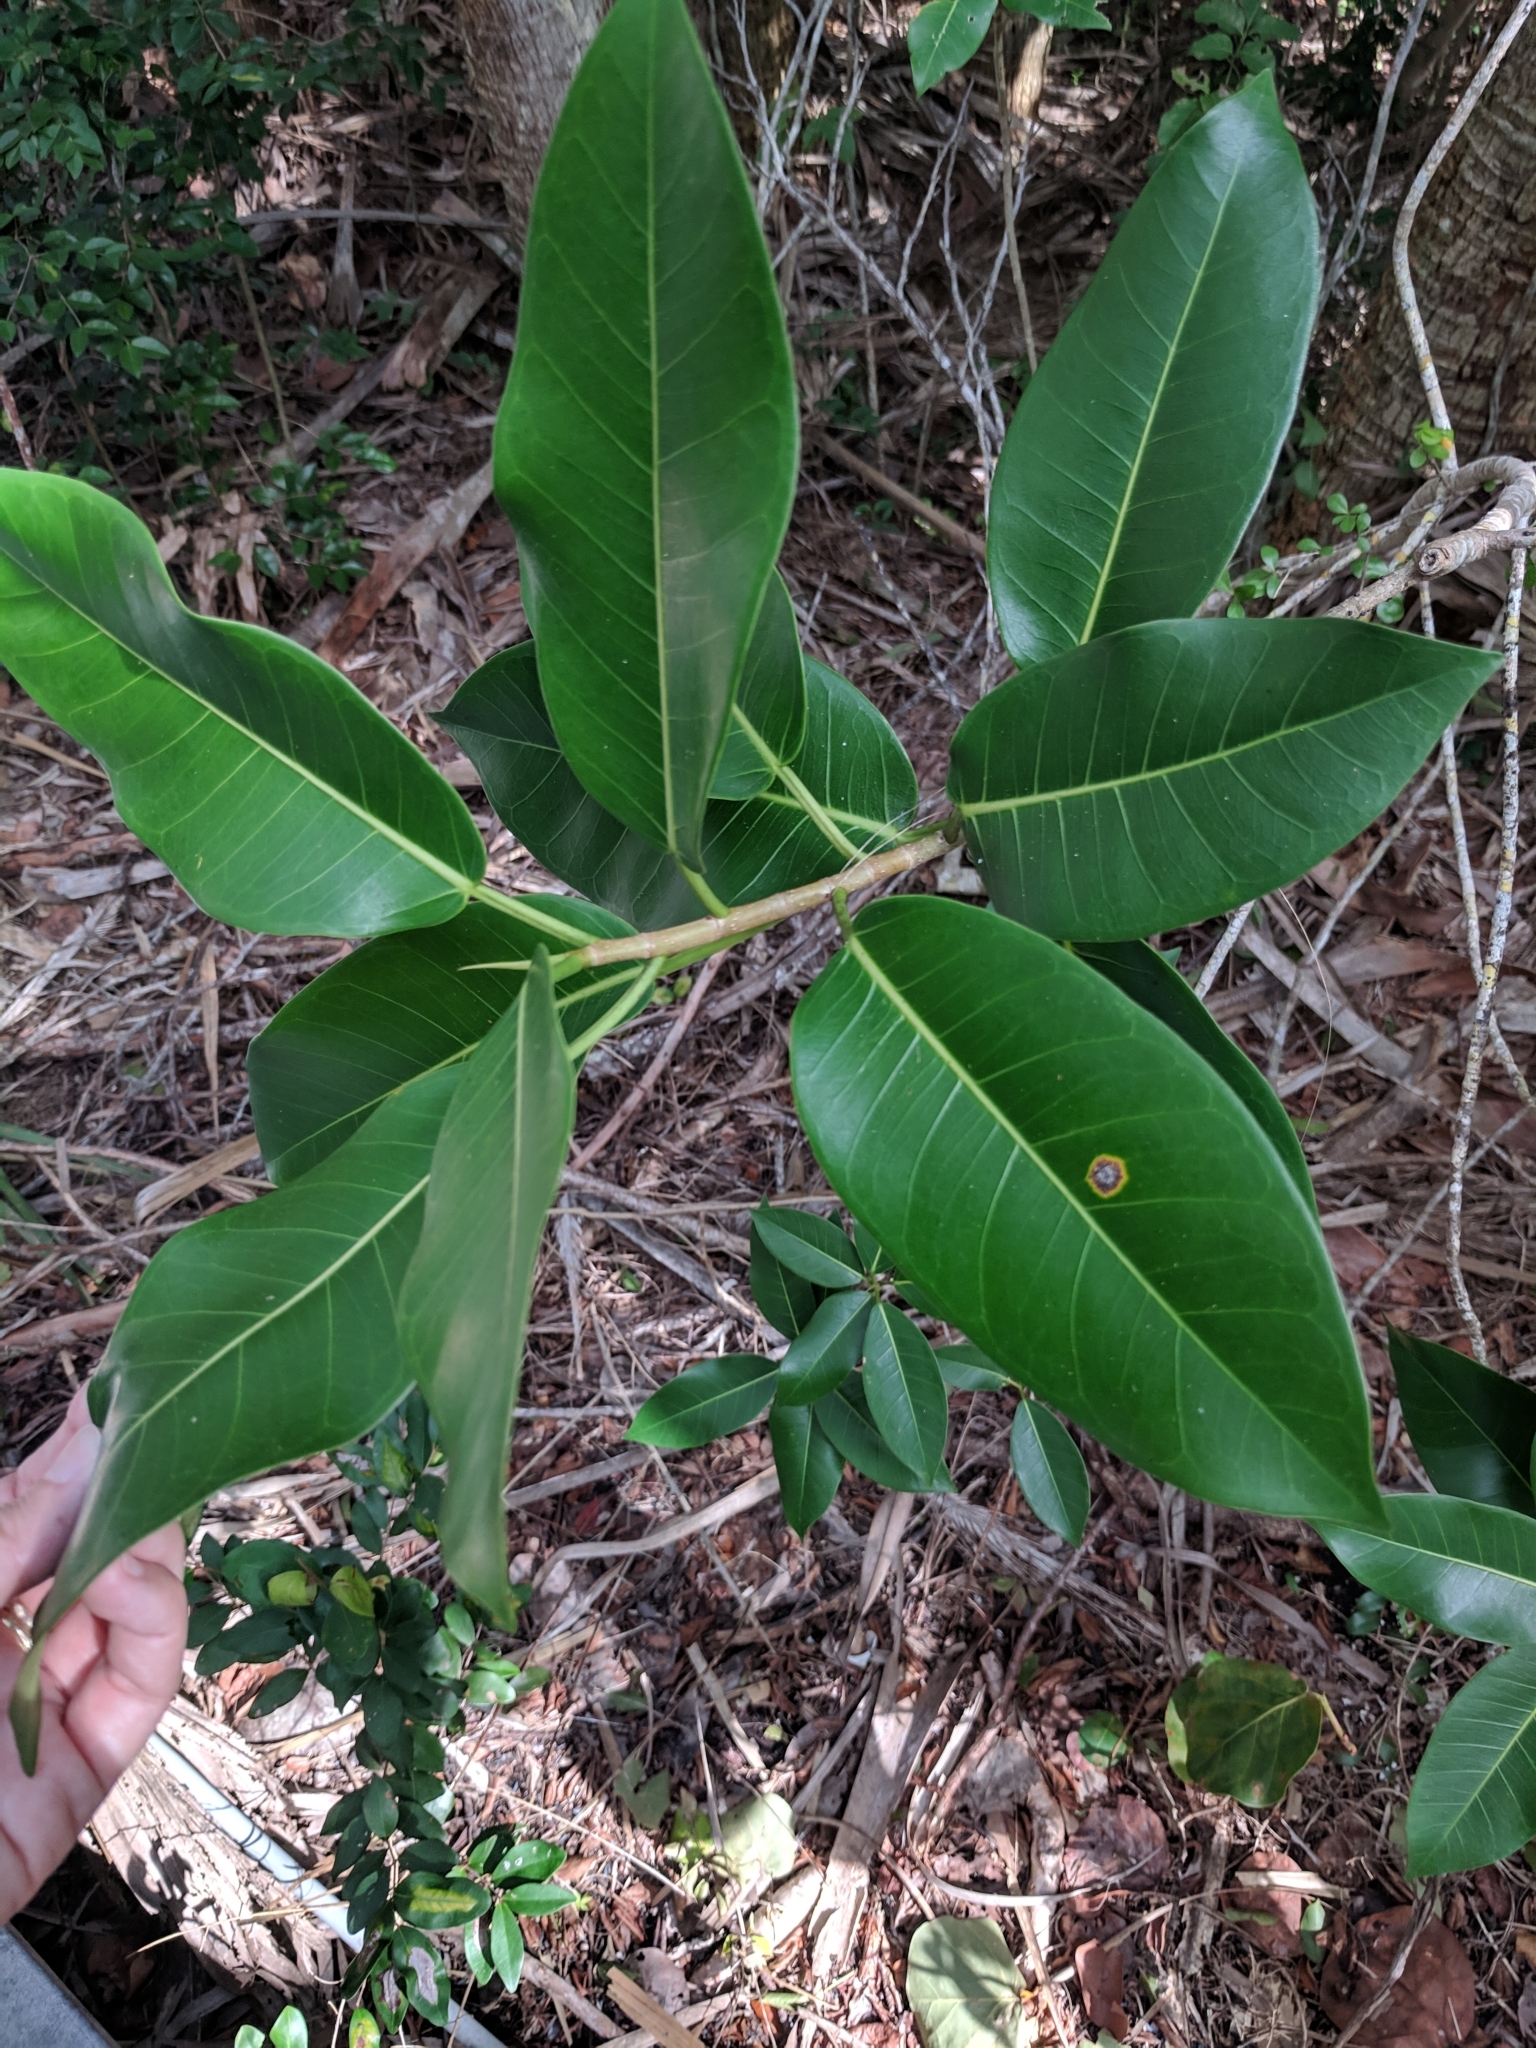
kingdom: Plantae
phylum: Tracheophyta
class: Magnoliopsida
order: Rosales
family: Moraceae
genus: Ficus
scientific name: Ficus aurea
